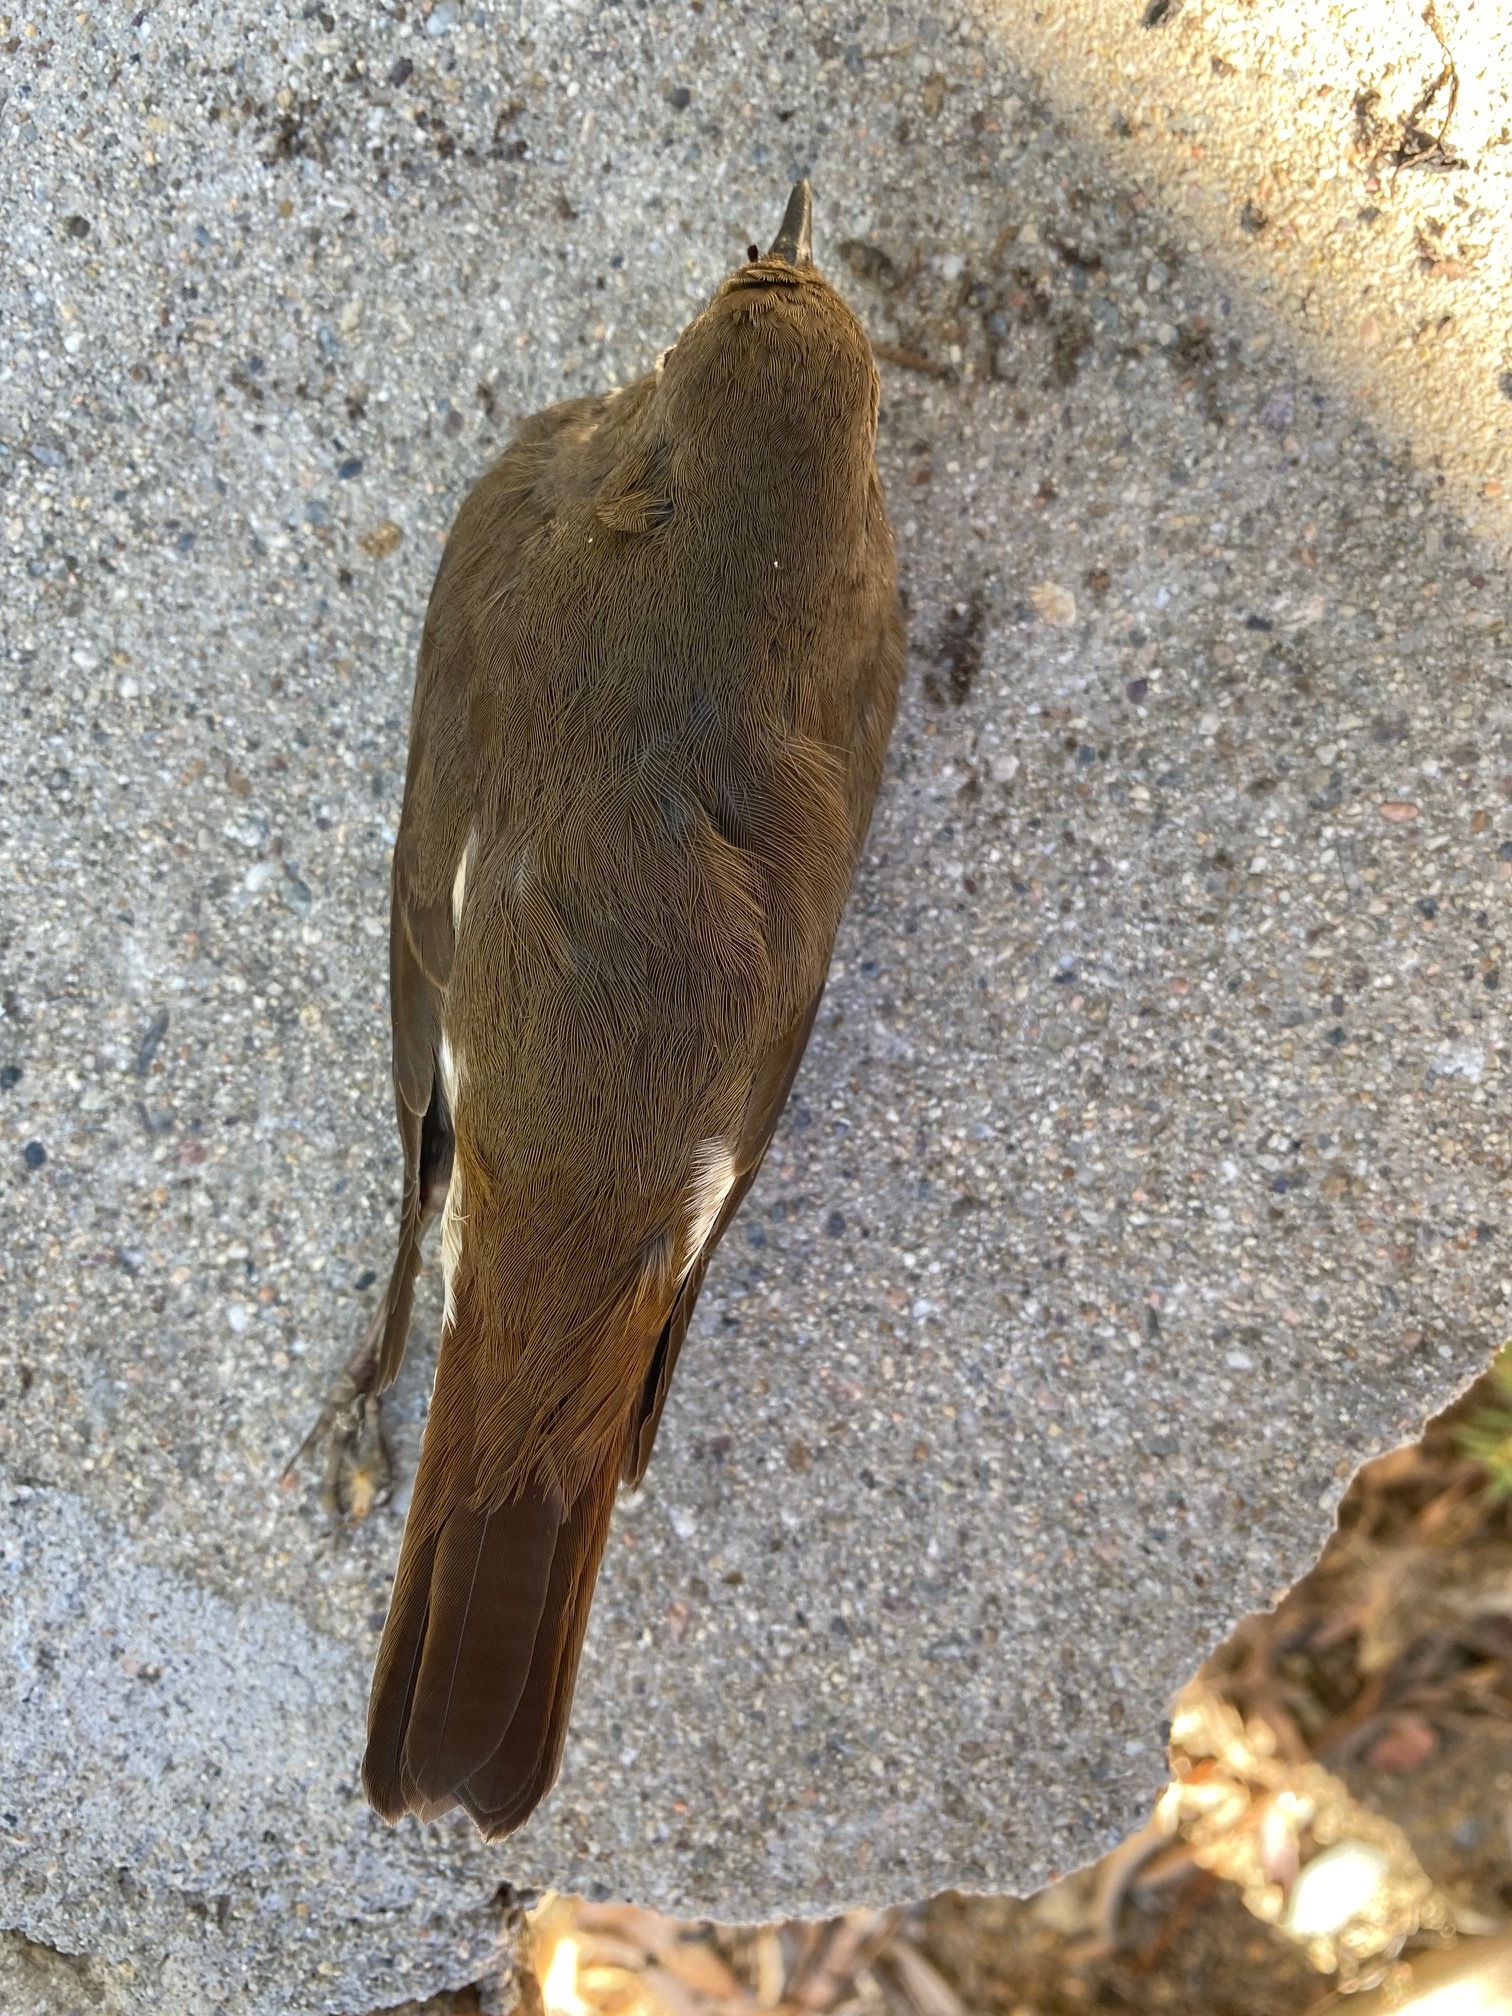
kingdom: Animalia
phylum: Chordata
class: Aves
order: Passeriformes
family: Turdidae
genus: Catharus
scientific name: Catharus guttatus
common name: Hermit thrush
